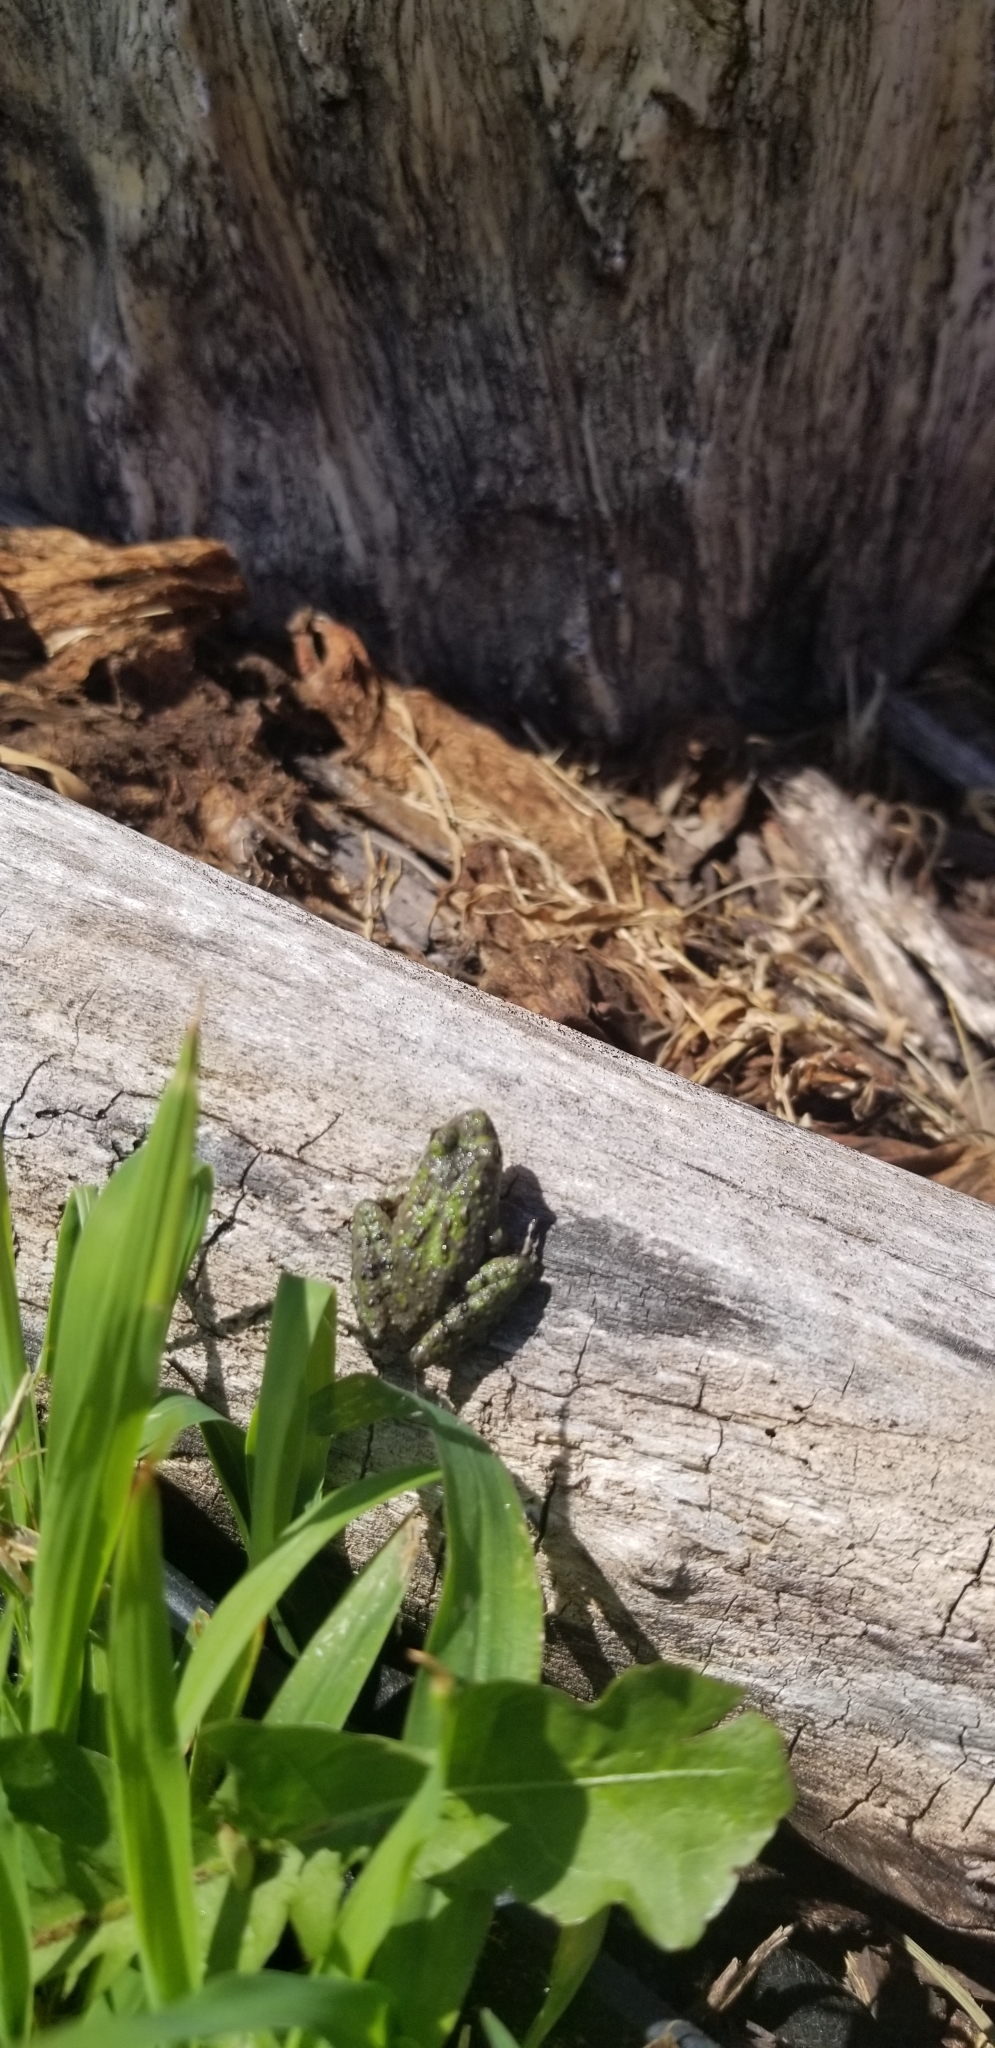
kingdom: Animalia
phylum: Chordata
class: Amphibia
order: Anura
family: Hylidae
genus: Acris
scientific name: Acris blanchardi
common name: Blanchard's cricket frog
